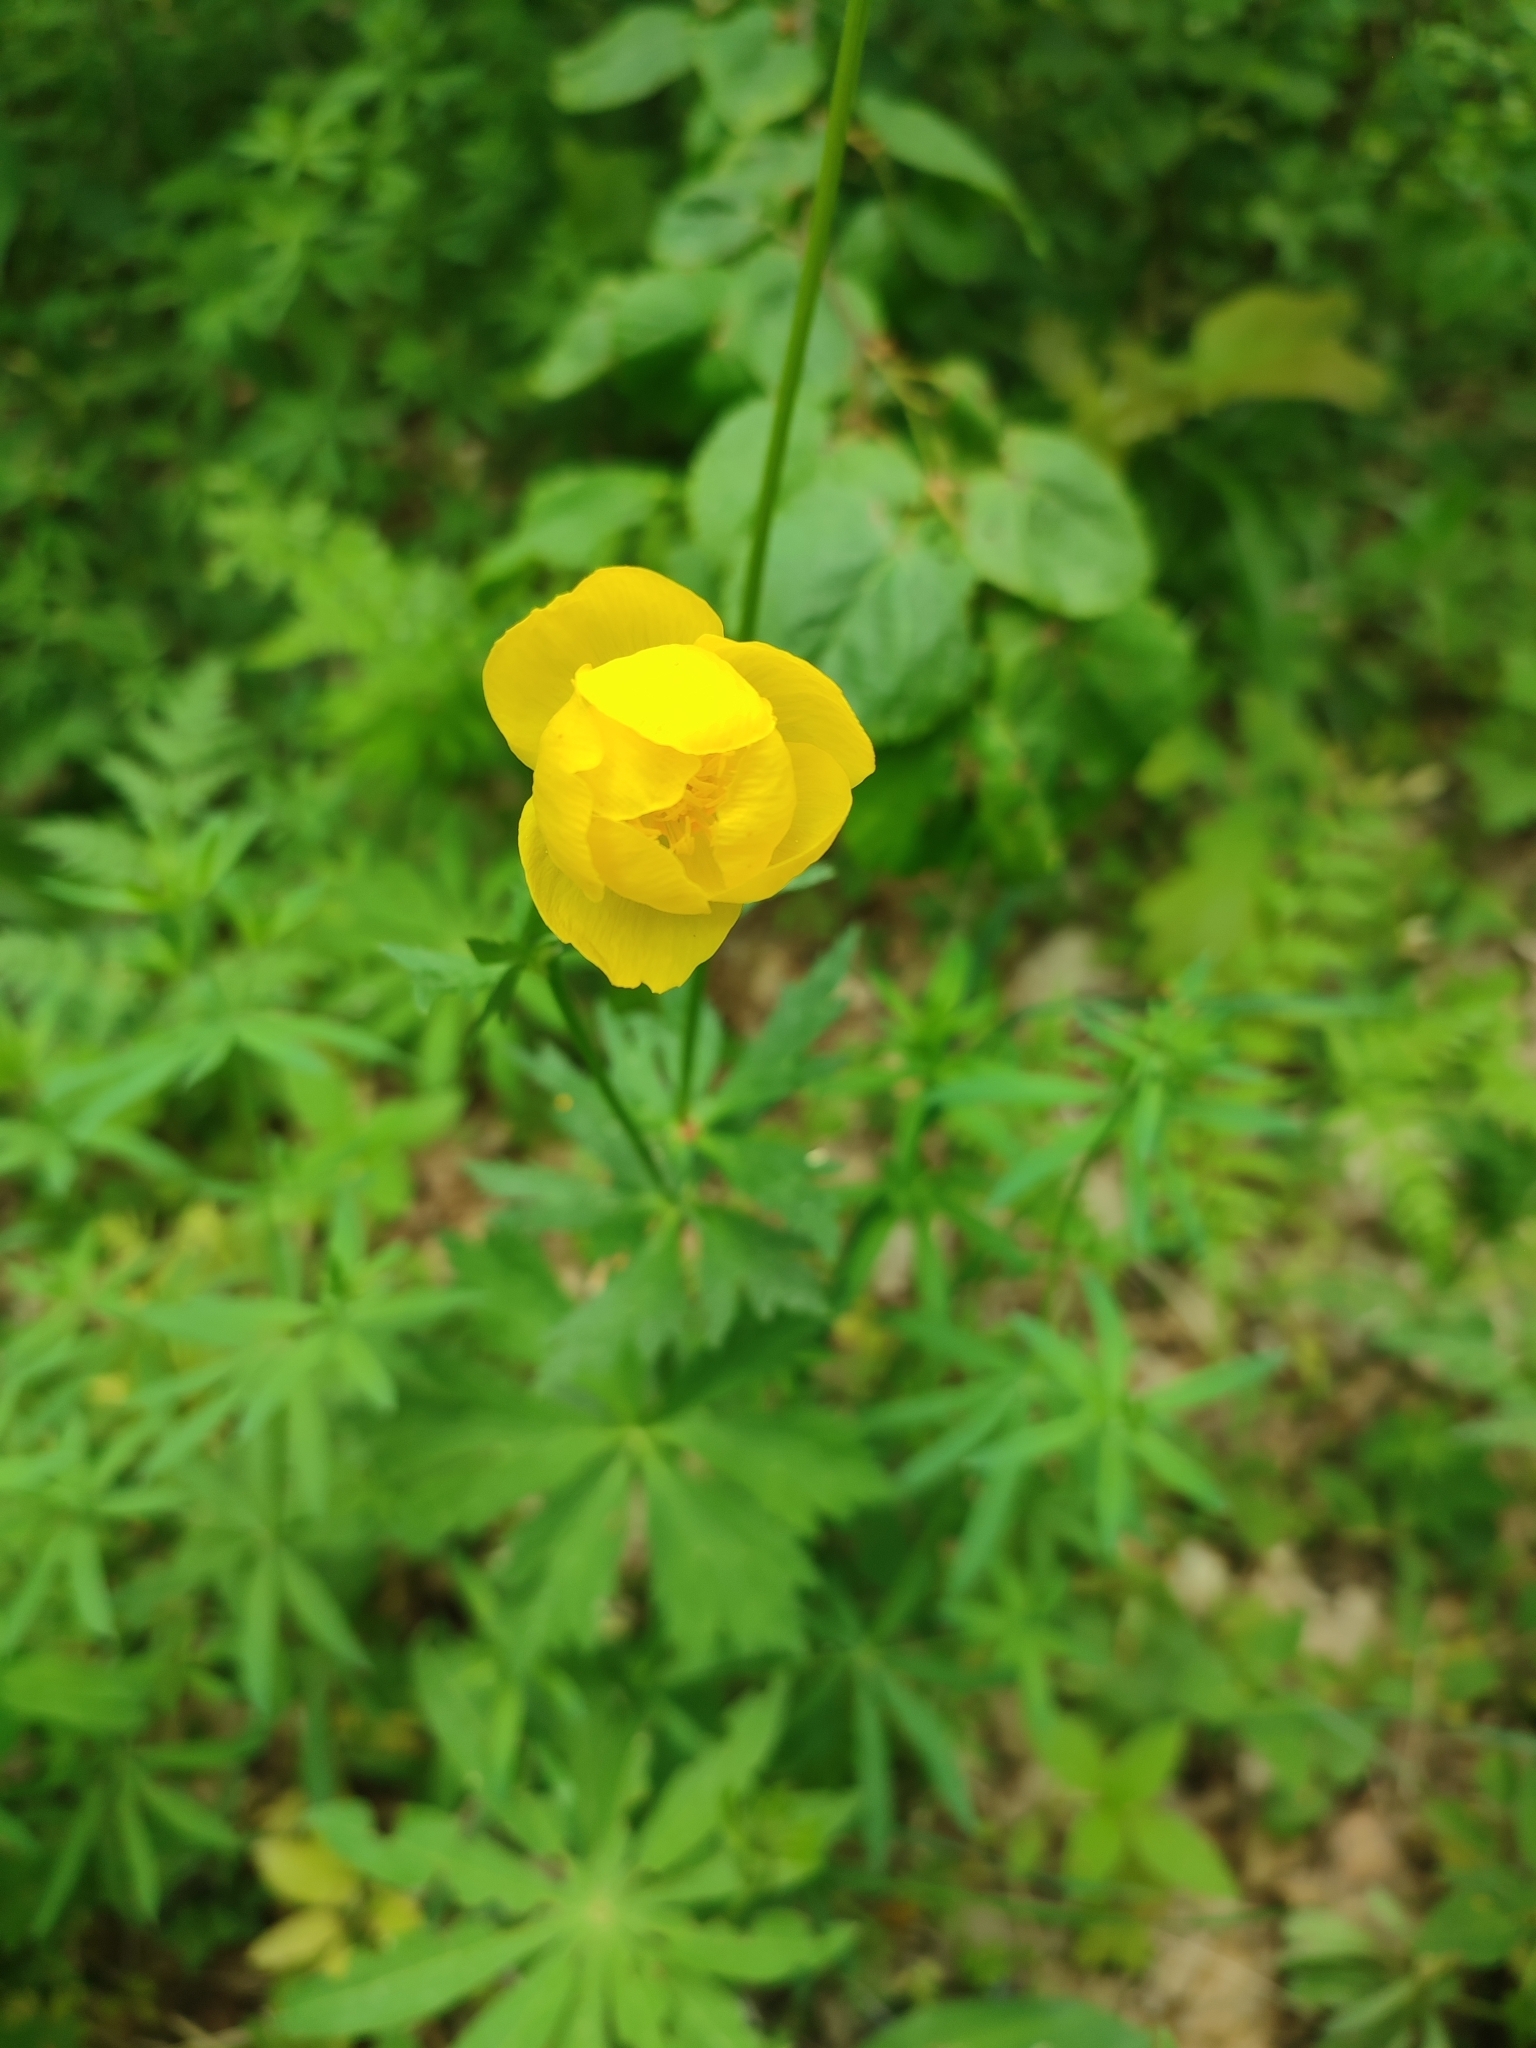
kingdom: Plantae
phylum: Tracheophyta
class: Magnoliopsida
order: Ranunculales
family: Ranunculaceae
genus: Trollius
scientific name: Trollius europaeus
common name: European globeflower
